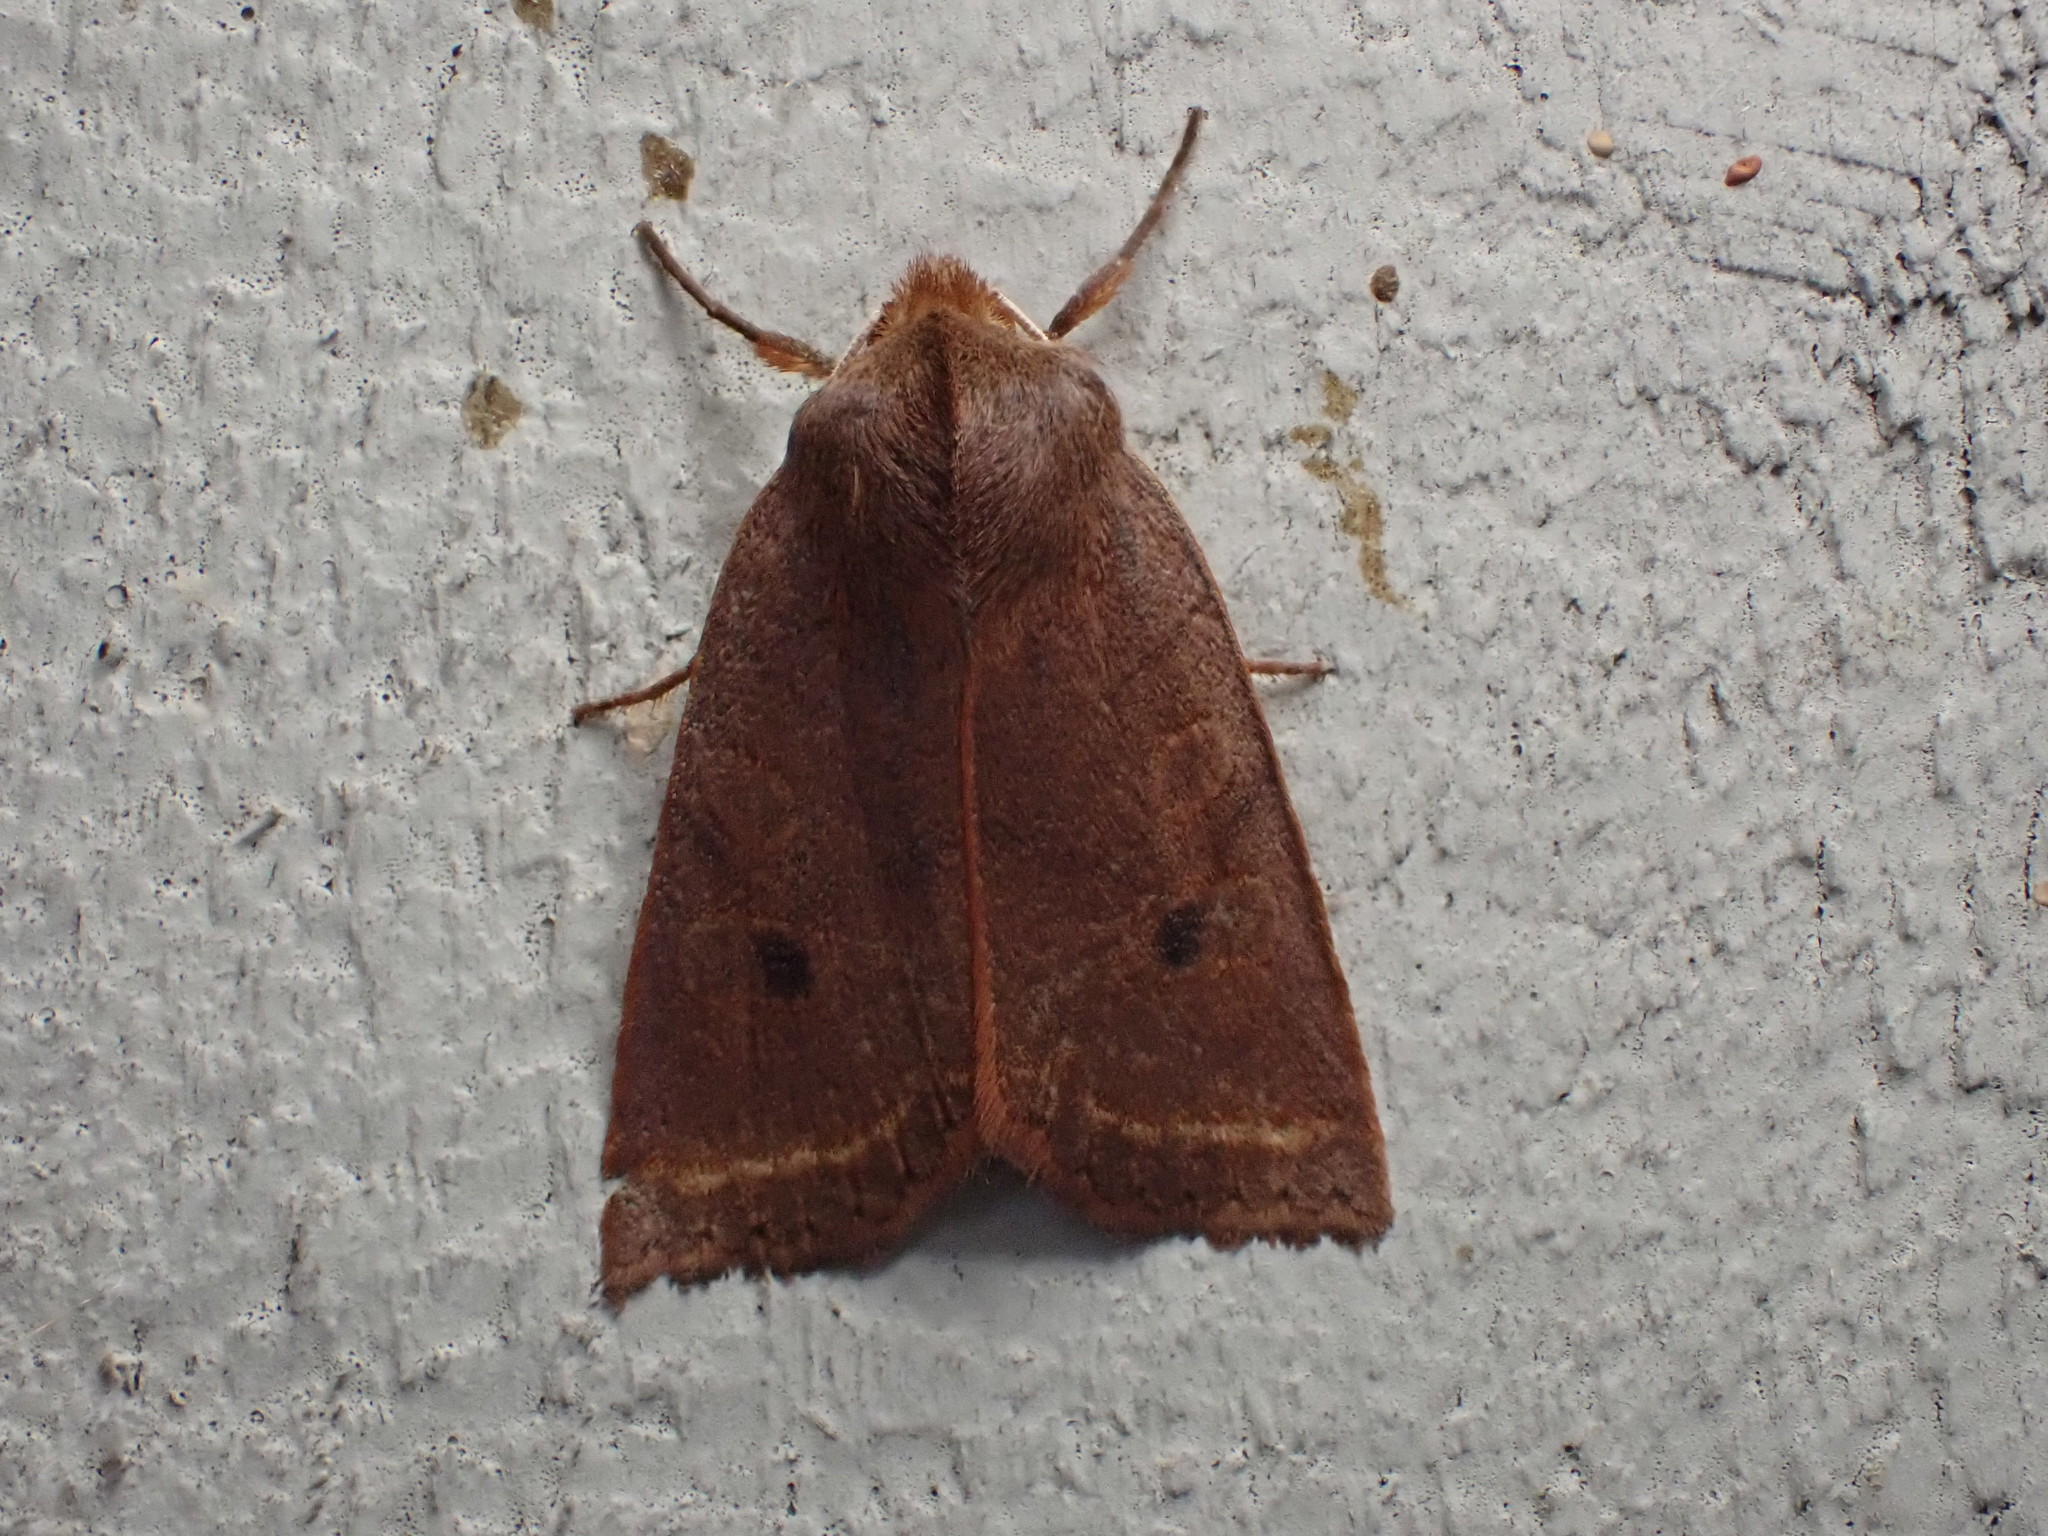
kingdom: Animalia
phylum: Arthropoda
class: Insecta
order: Lepidoptera
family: Noctuidae
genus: Epiglaea
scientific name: Epiglaea apiata
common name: Pointed sallow
